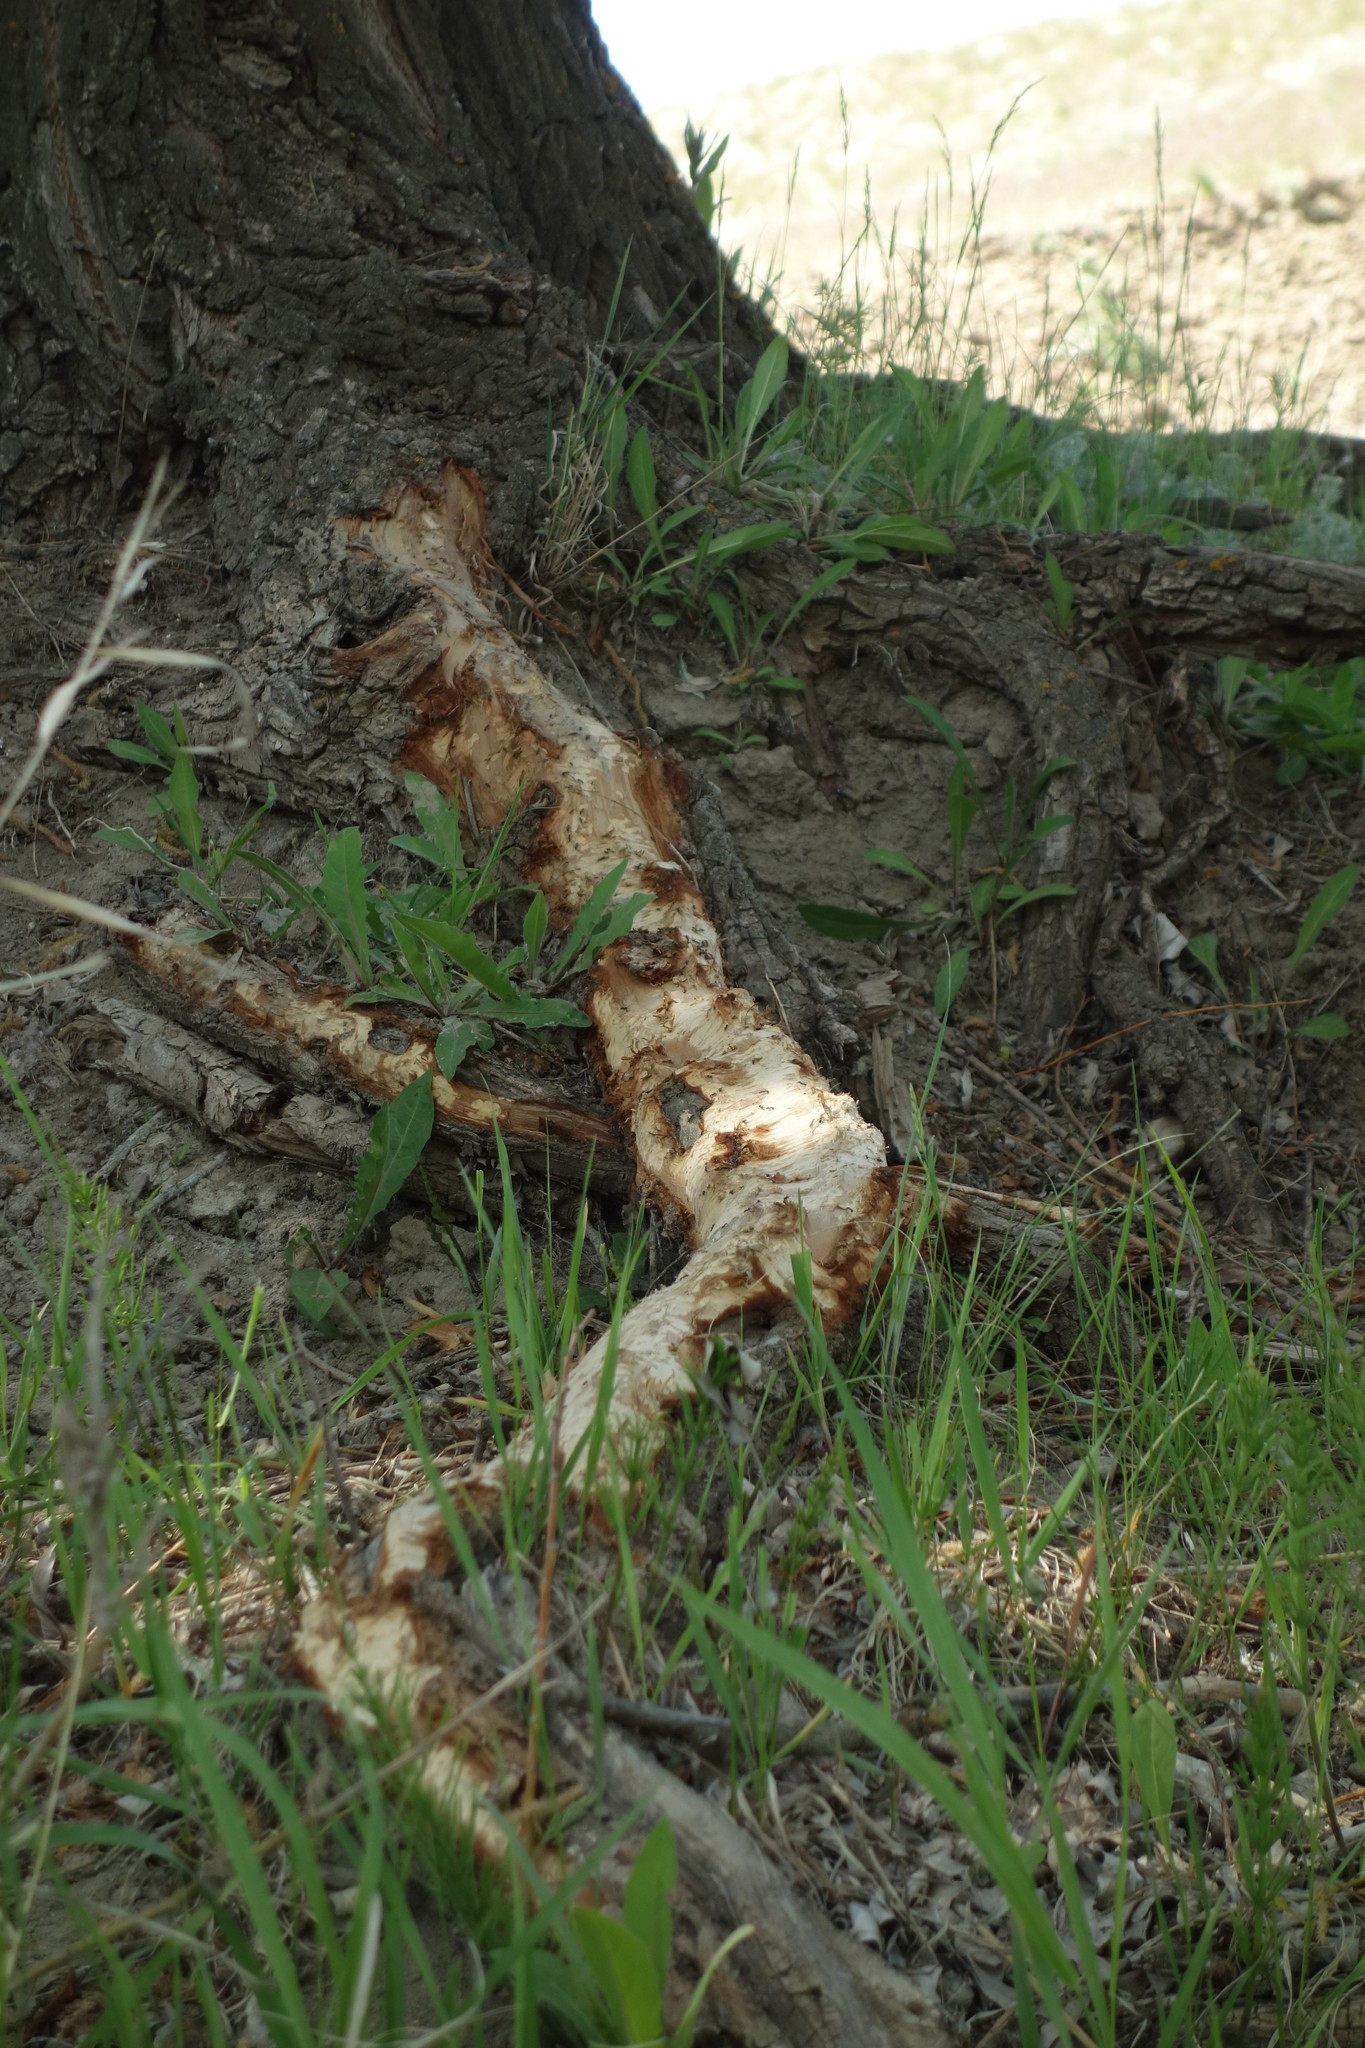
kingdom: Animalia
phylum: Chordata
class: Mammalia
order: Rodentia
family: Castoridae
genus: Castor
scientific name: Castor fiber
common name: Eurasian beaver
